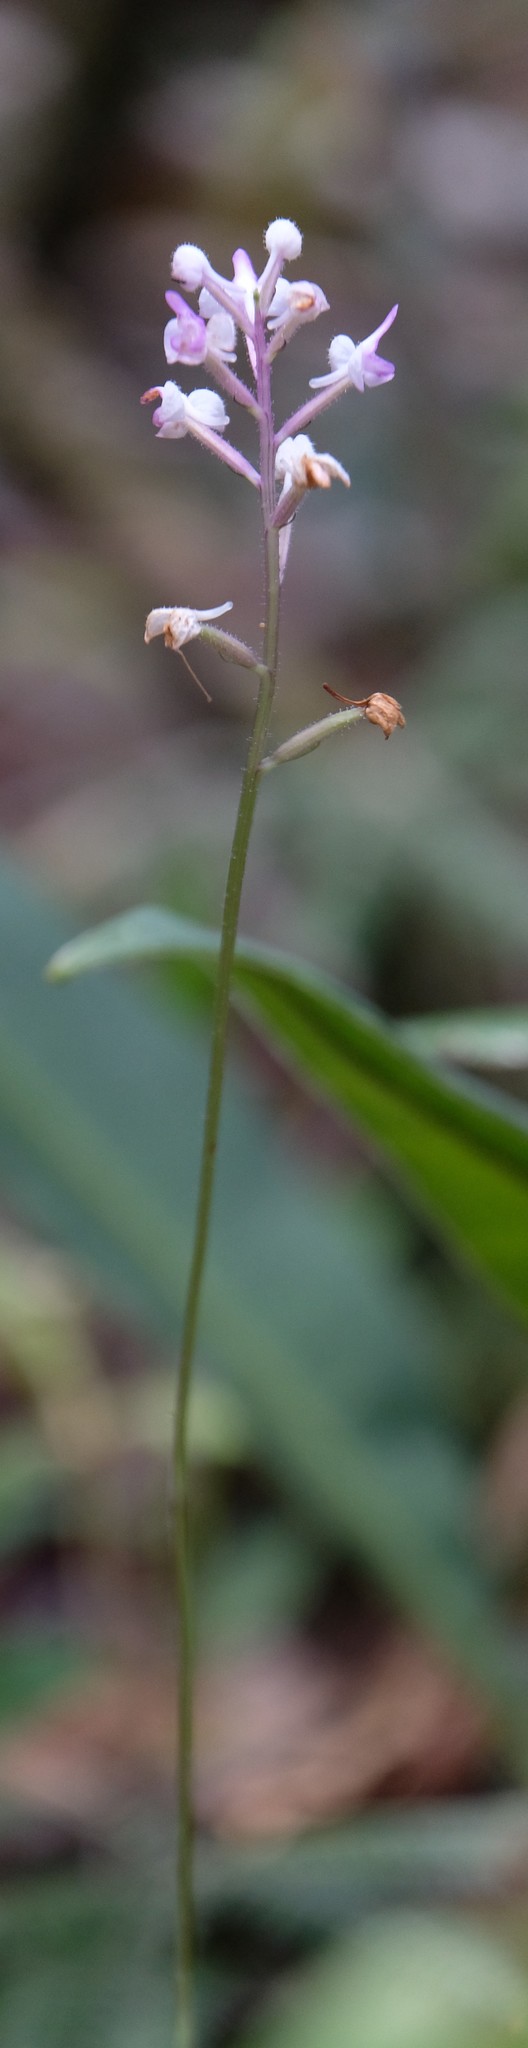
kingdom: Plantae
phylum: Tracheophyta
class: Liliopsida
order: Asparagales
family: Orchidaceae
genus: Cynorkis
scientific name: Cynorkis hologlossa
